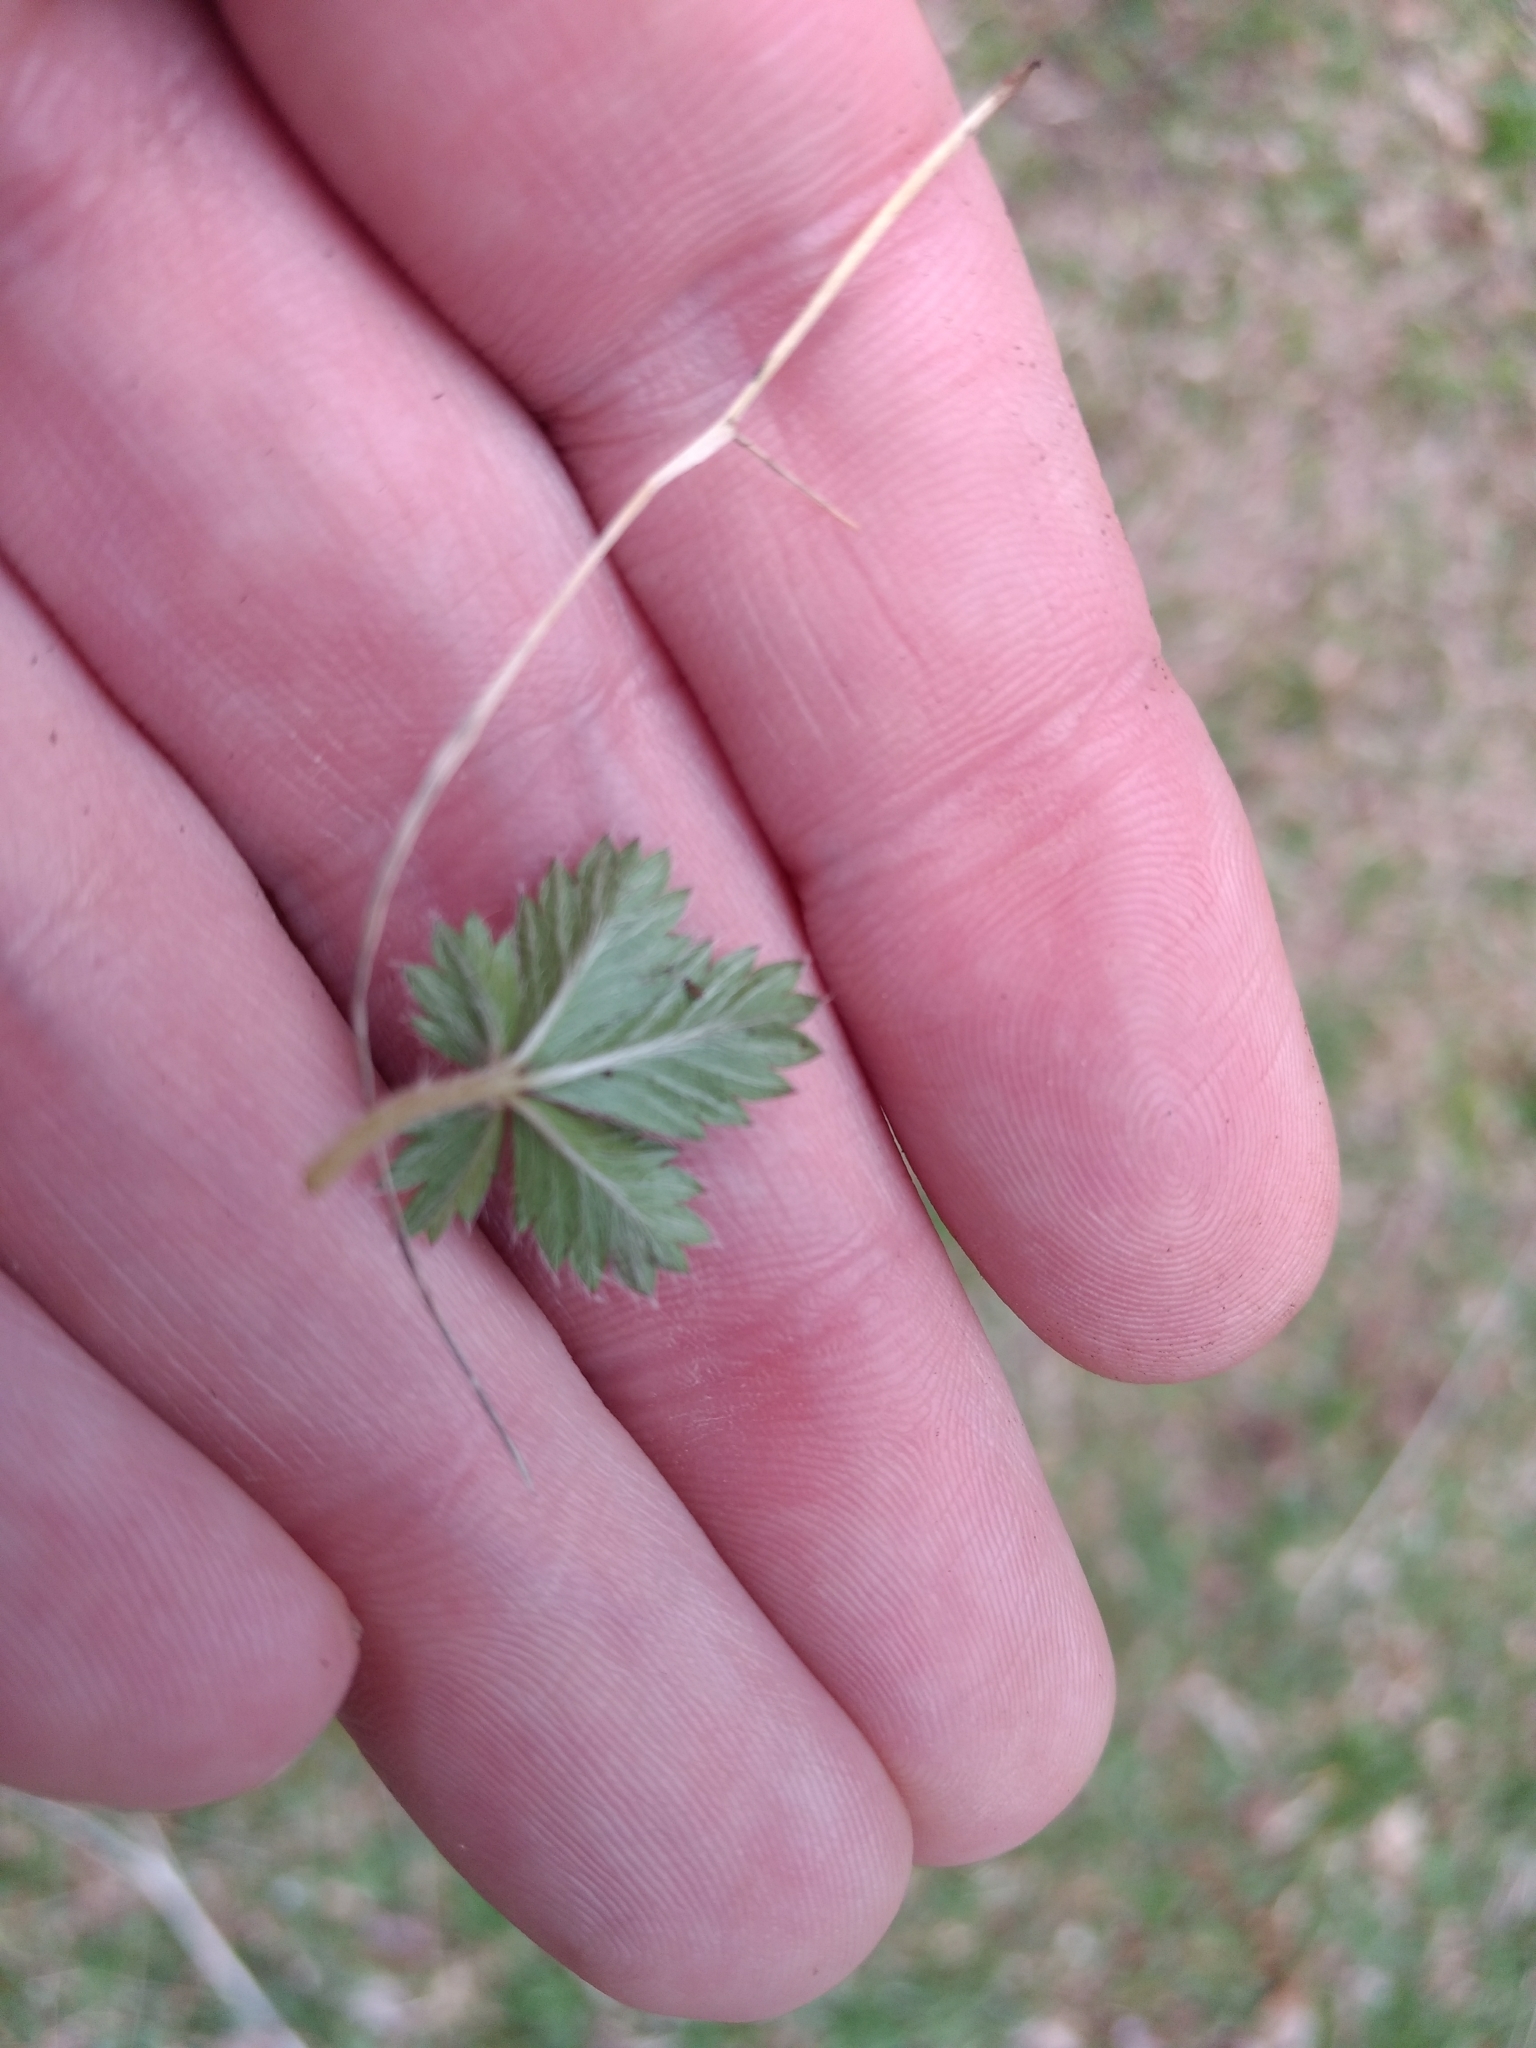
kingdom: Plantae
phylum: Tracheophyta
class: Magnoliopsida
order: Rosales
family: Rosaceae
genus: Potentilla
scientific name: Potentilla canadensis
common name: Canada cinquefoil
